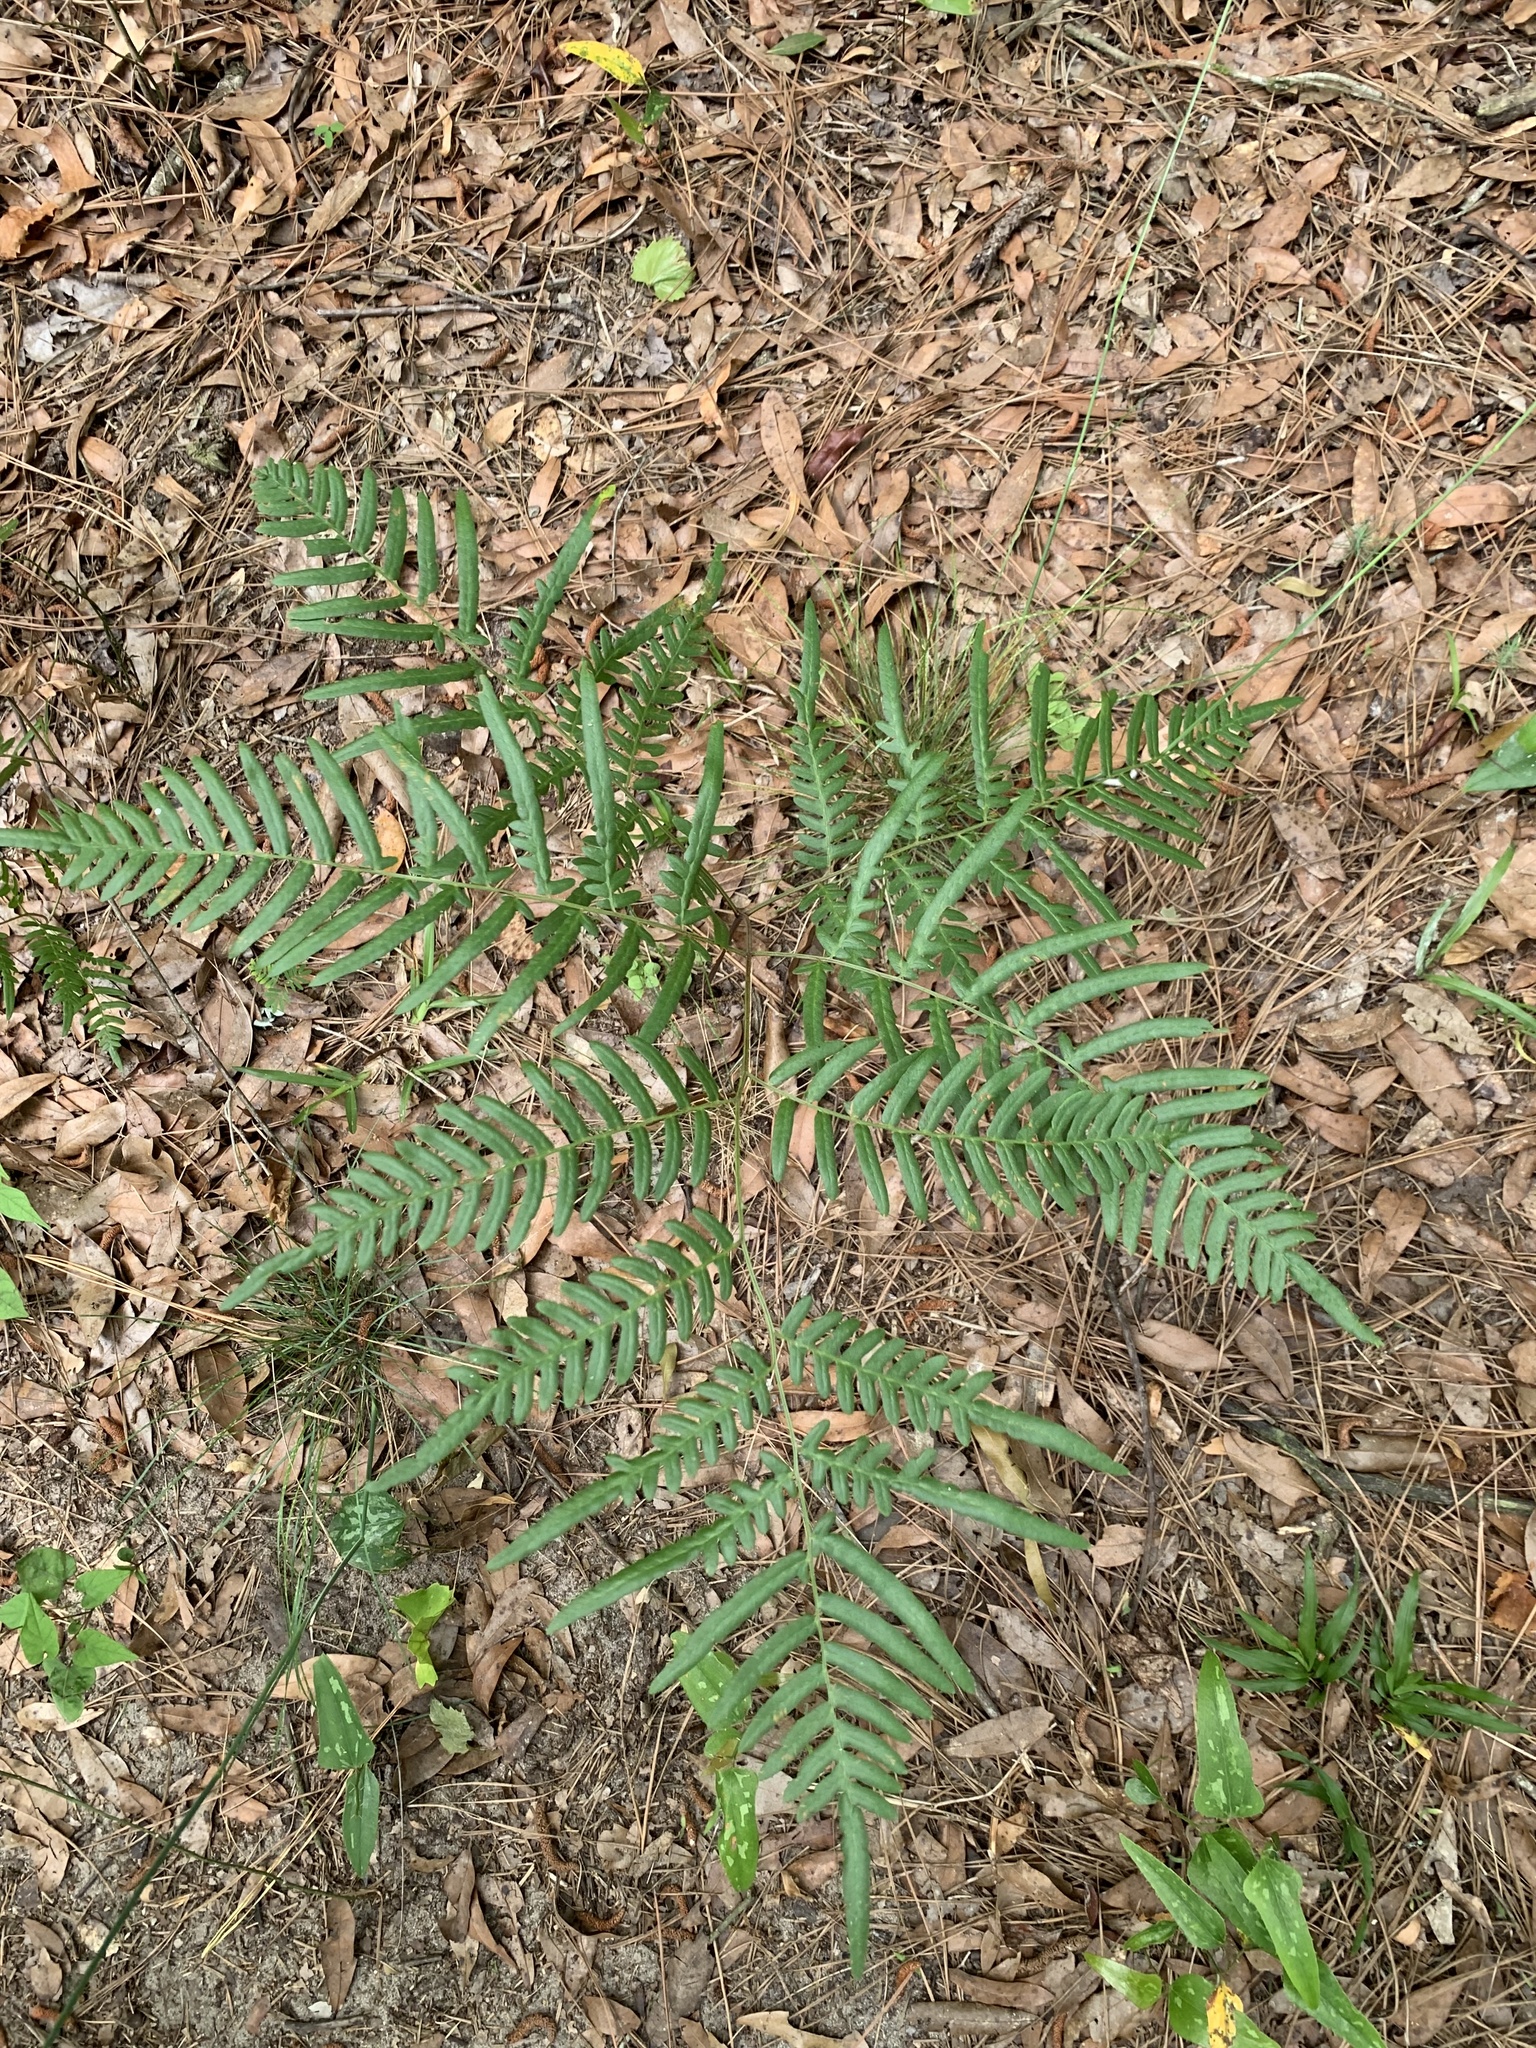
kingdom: Plantae
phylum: Tracheophyta
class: Polypodiopsida
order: Polypodiales
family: Dennstaedtiaceae
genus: Pteridium
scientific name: Pteridium
